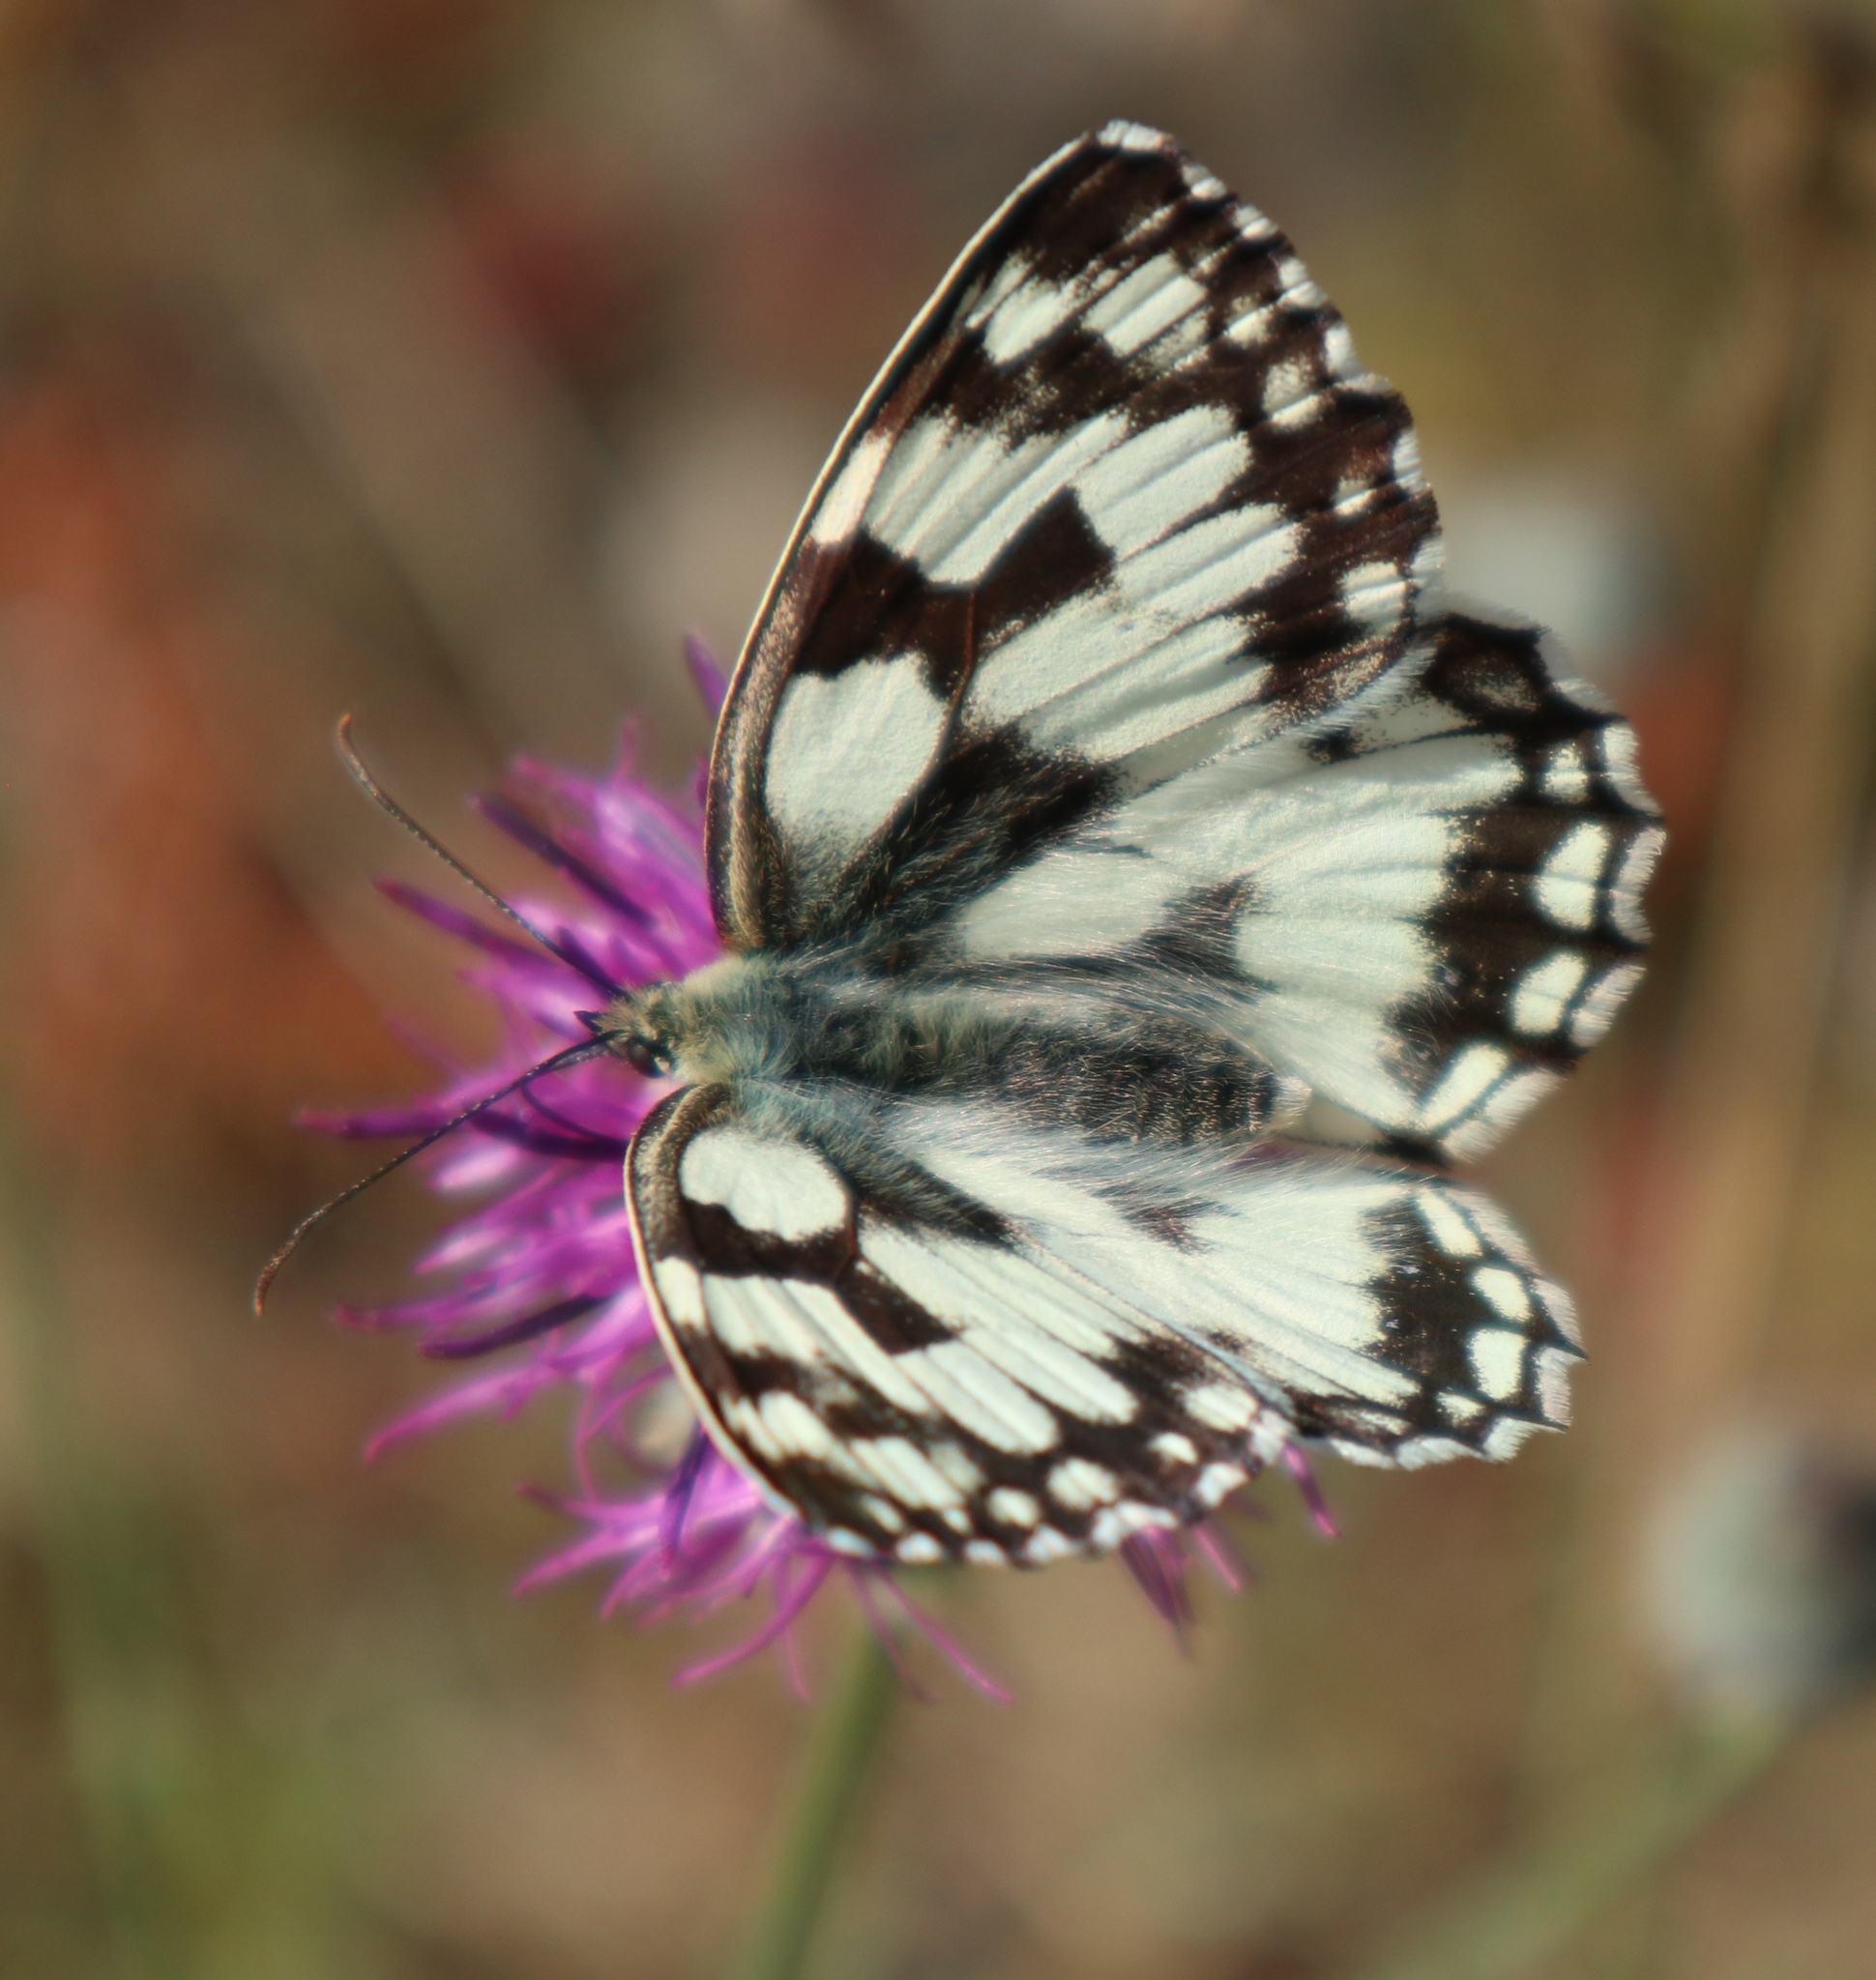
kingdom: Animalia
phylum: Arthropoda
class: Insecta
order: Lepidoptera
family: Nymphalidae
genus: Melanargia
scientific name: Melanargia galathea
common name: Marbled white
